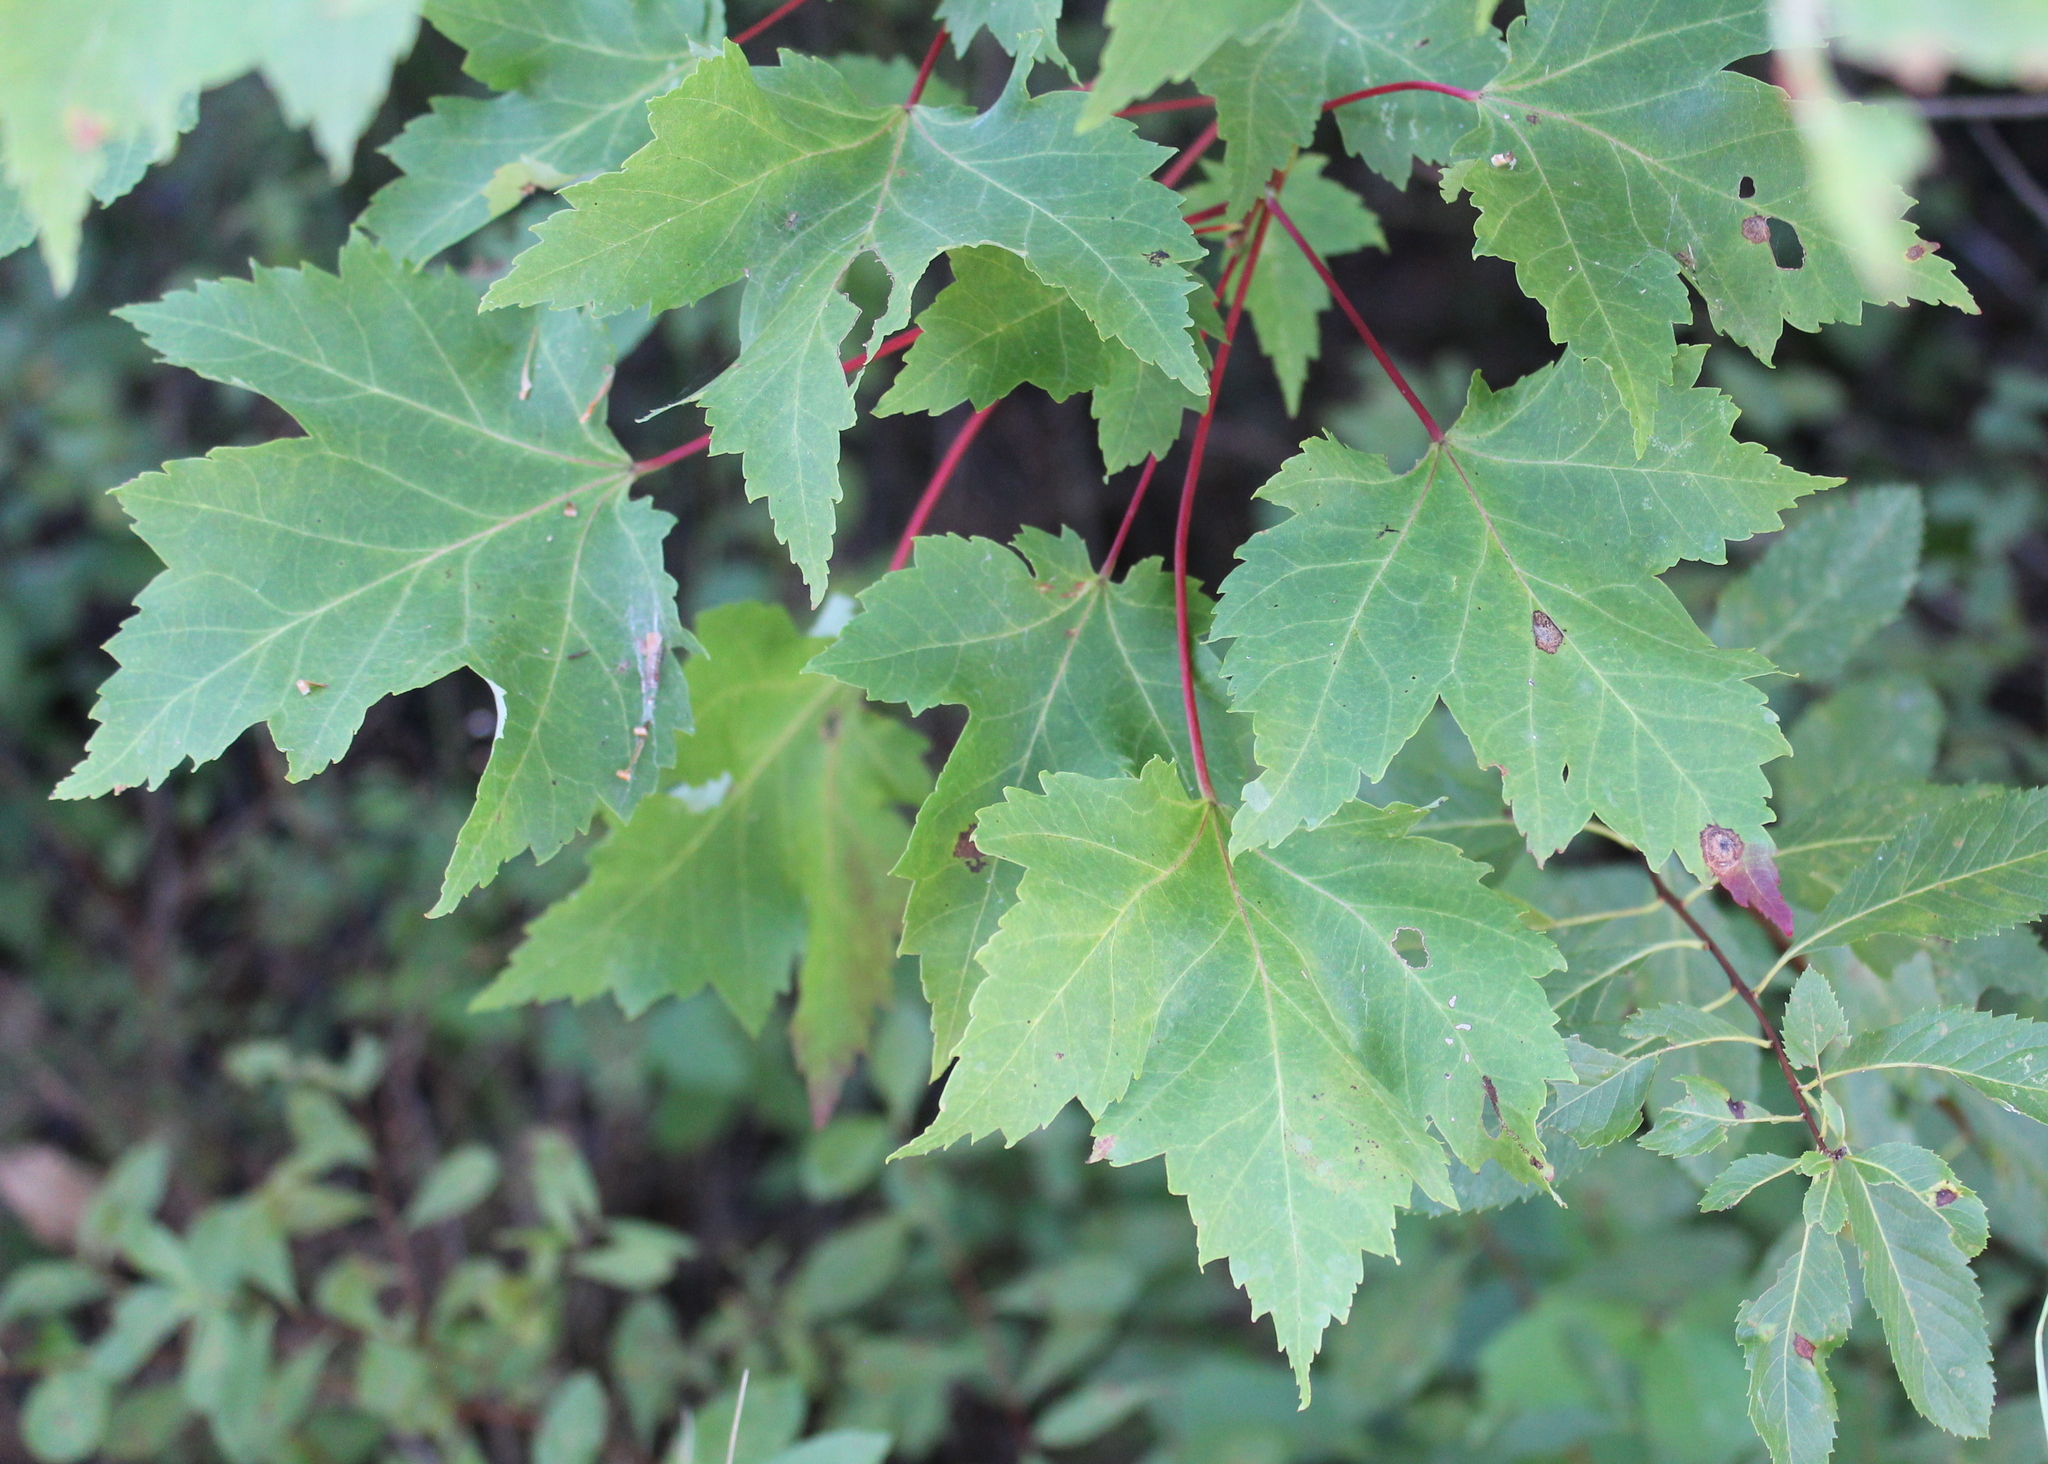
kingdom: Plantae
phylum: Tracheophyta
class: Magnoliopsida
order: Sapindales
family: Sapindaceae
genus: Acer
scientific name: Acer rubrum
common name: Red maple
